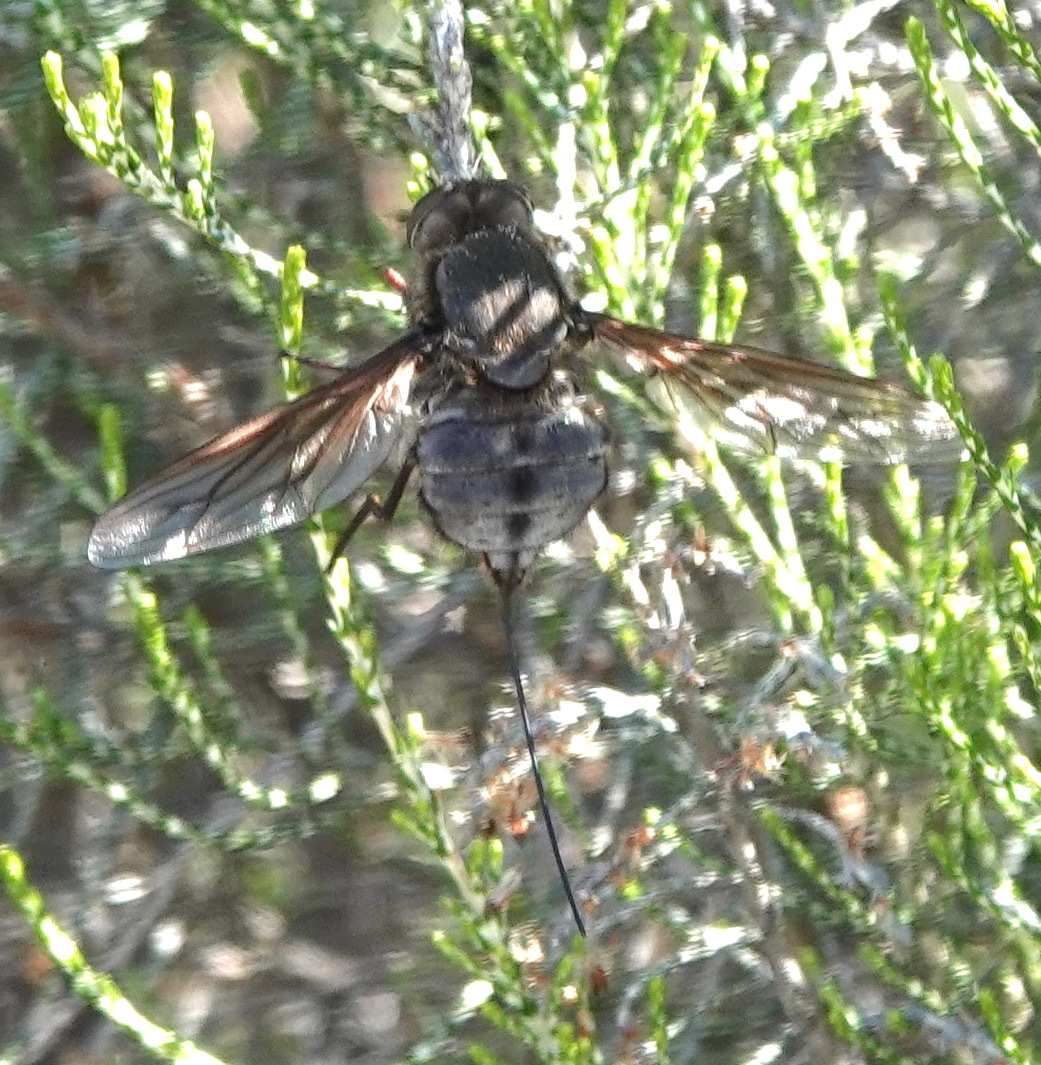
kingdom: Animalia
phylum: Arthropoda
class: Insecta
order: Diptera
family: Nemestrinidae
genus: Prosoeca
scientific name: Prosoeca marinusi
